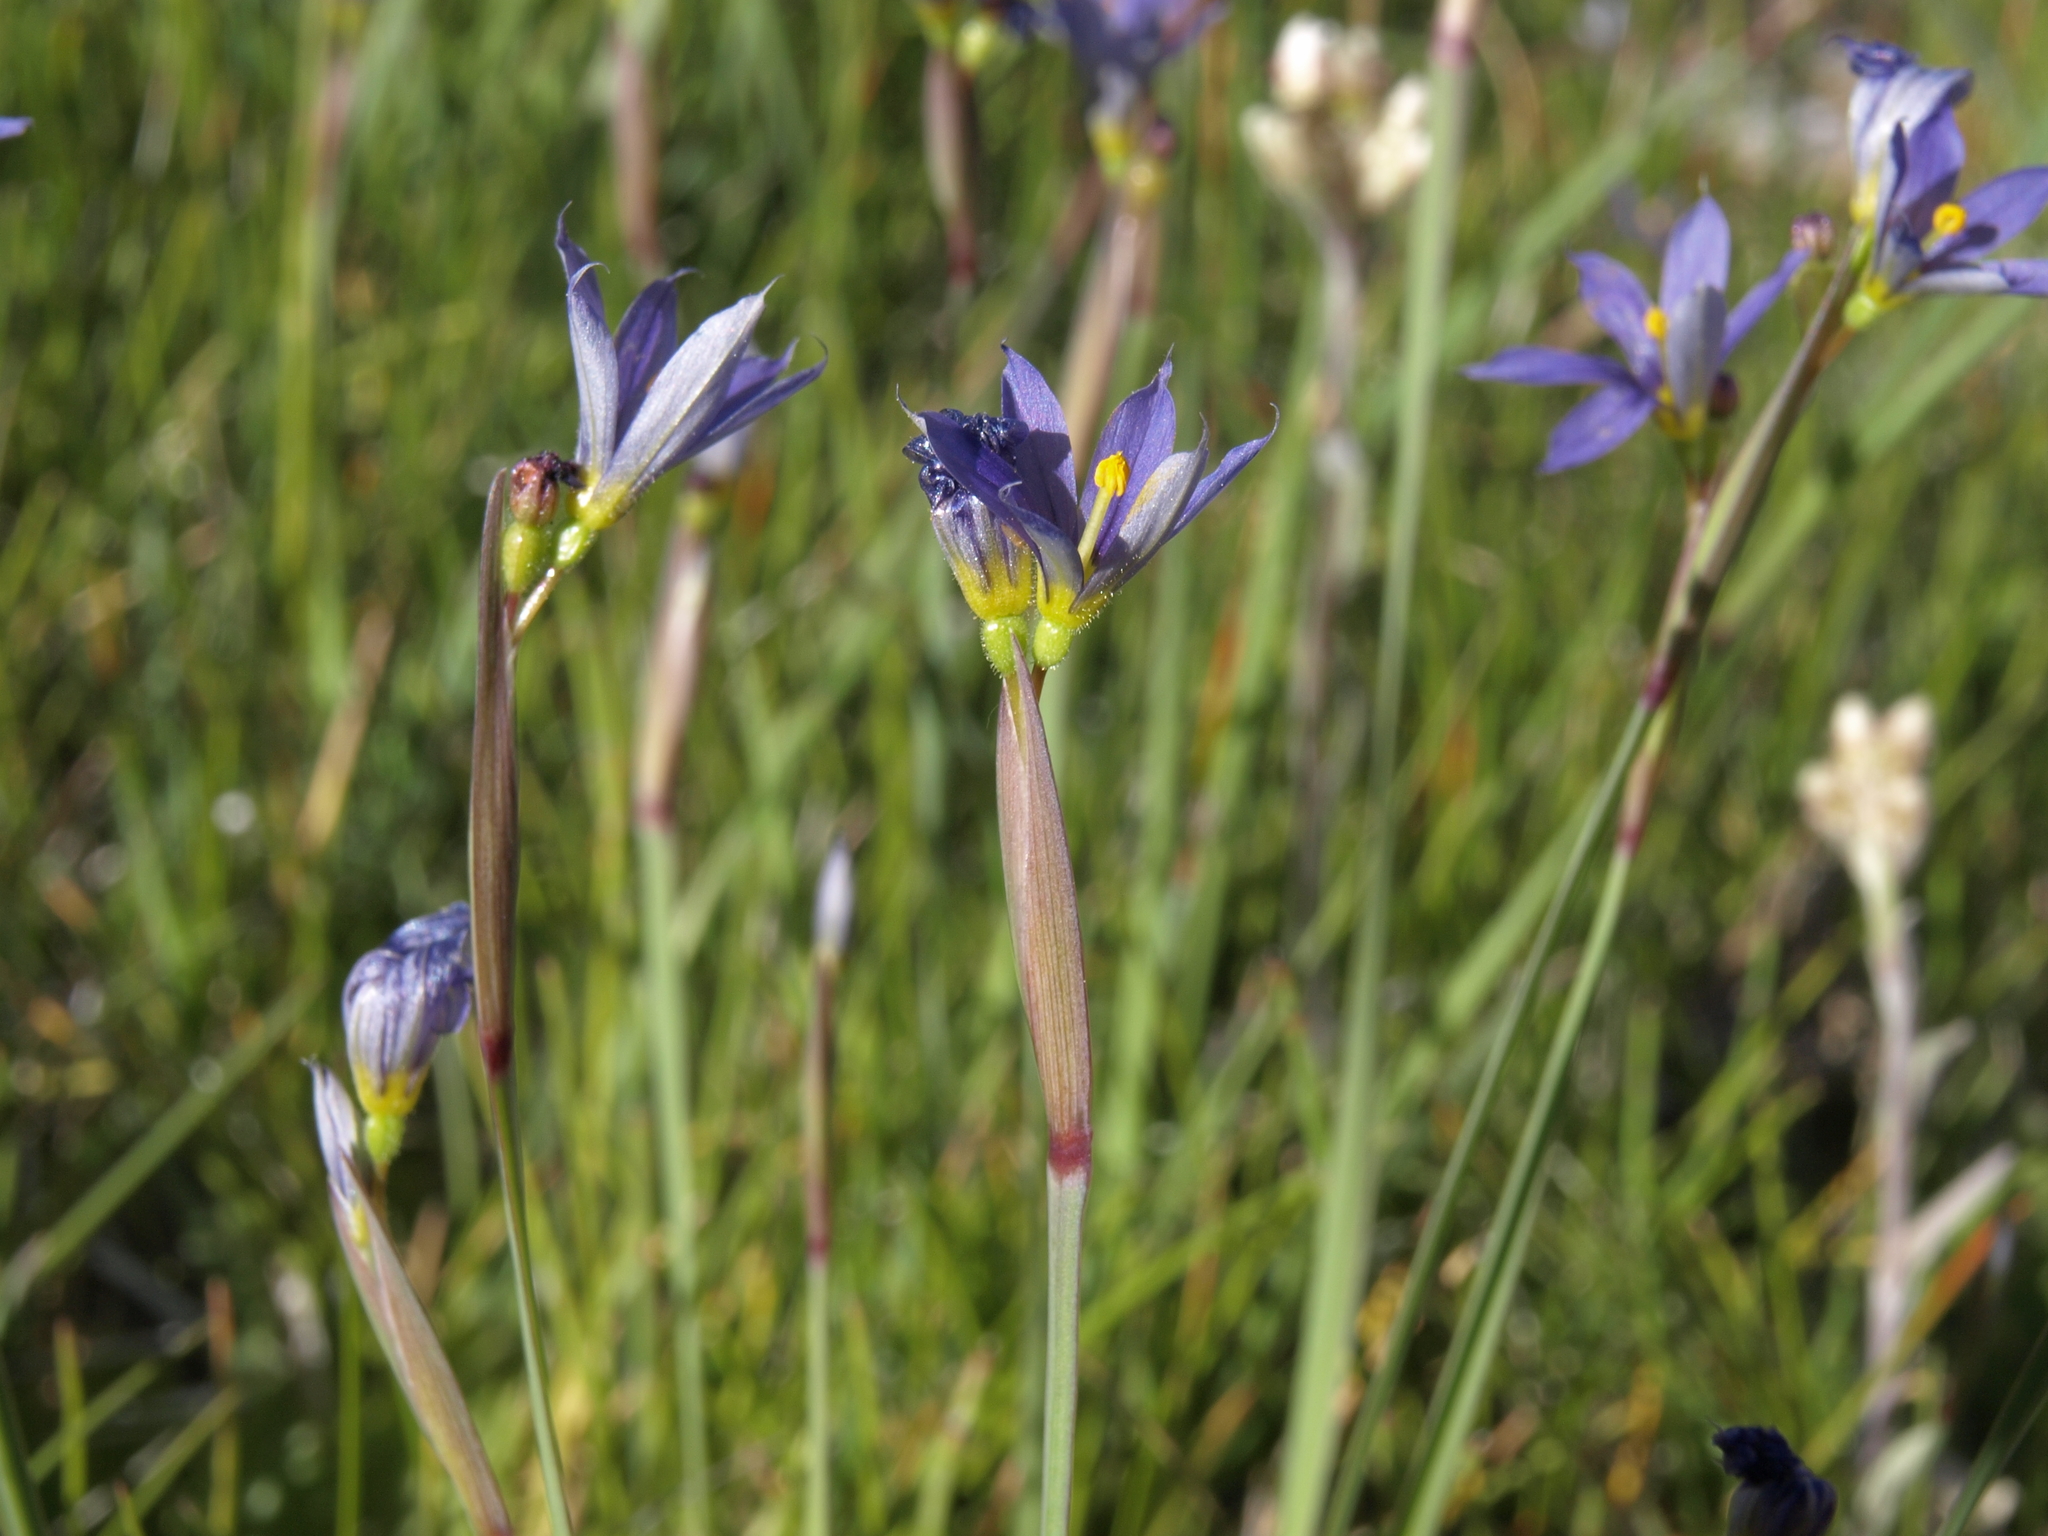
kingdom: Plantae
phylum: Tracheophyta
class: Liliopsida
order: Asparagales
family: Iridaceae
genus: Sisyrinchium
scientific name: Sisyrinchium idahoense
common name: Idaho blue-eyed-grass
